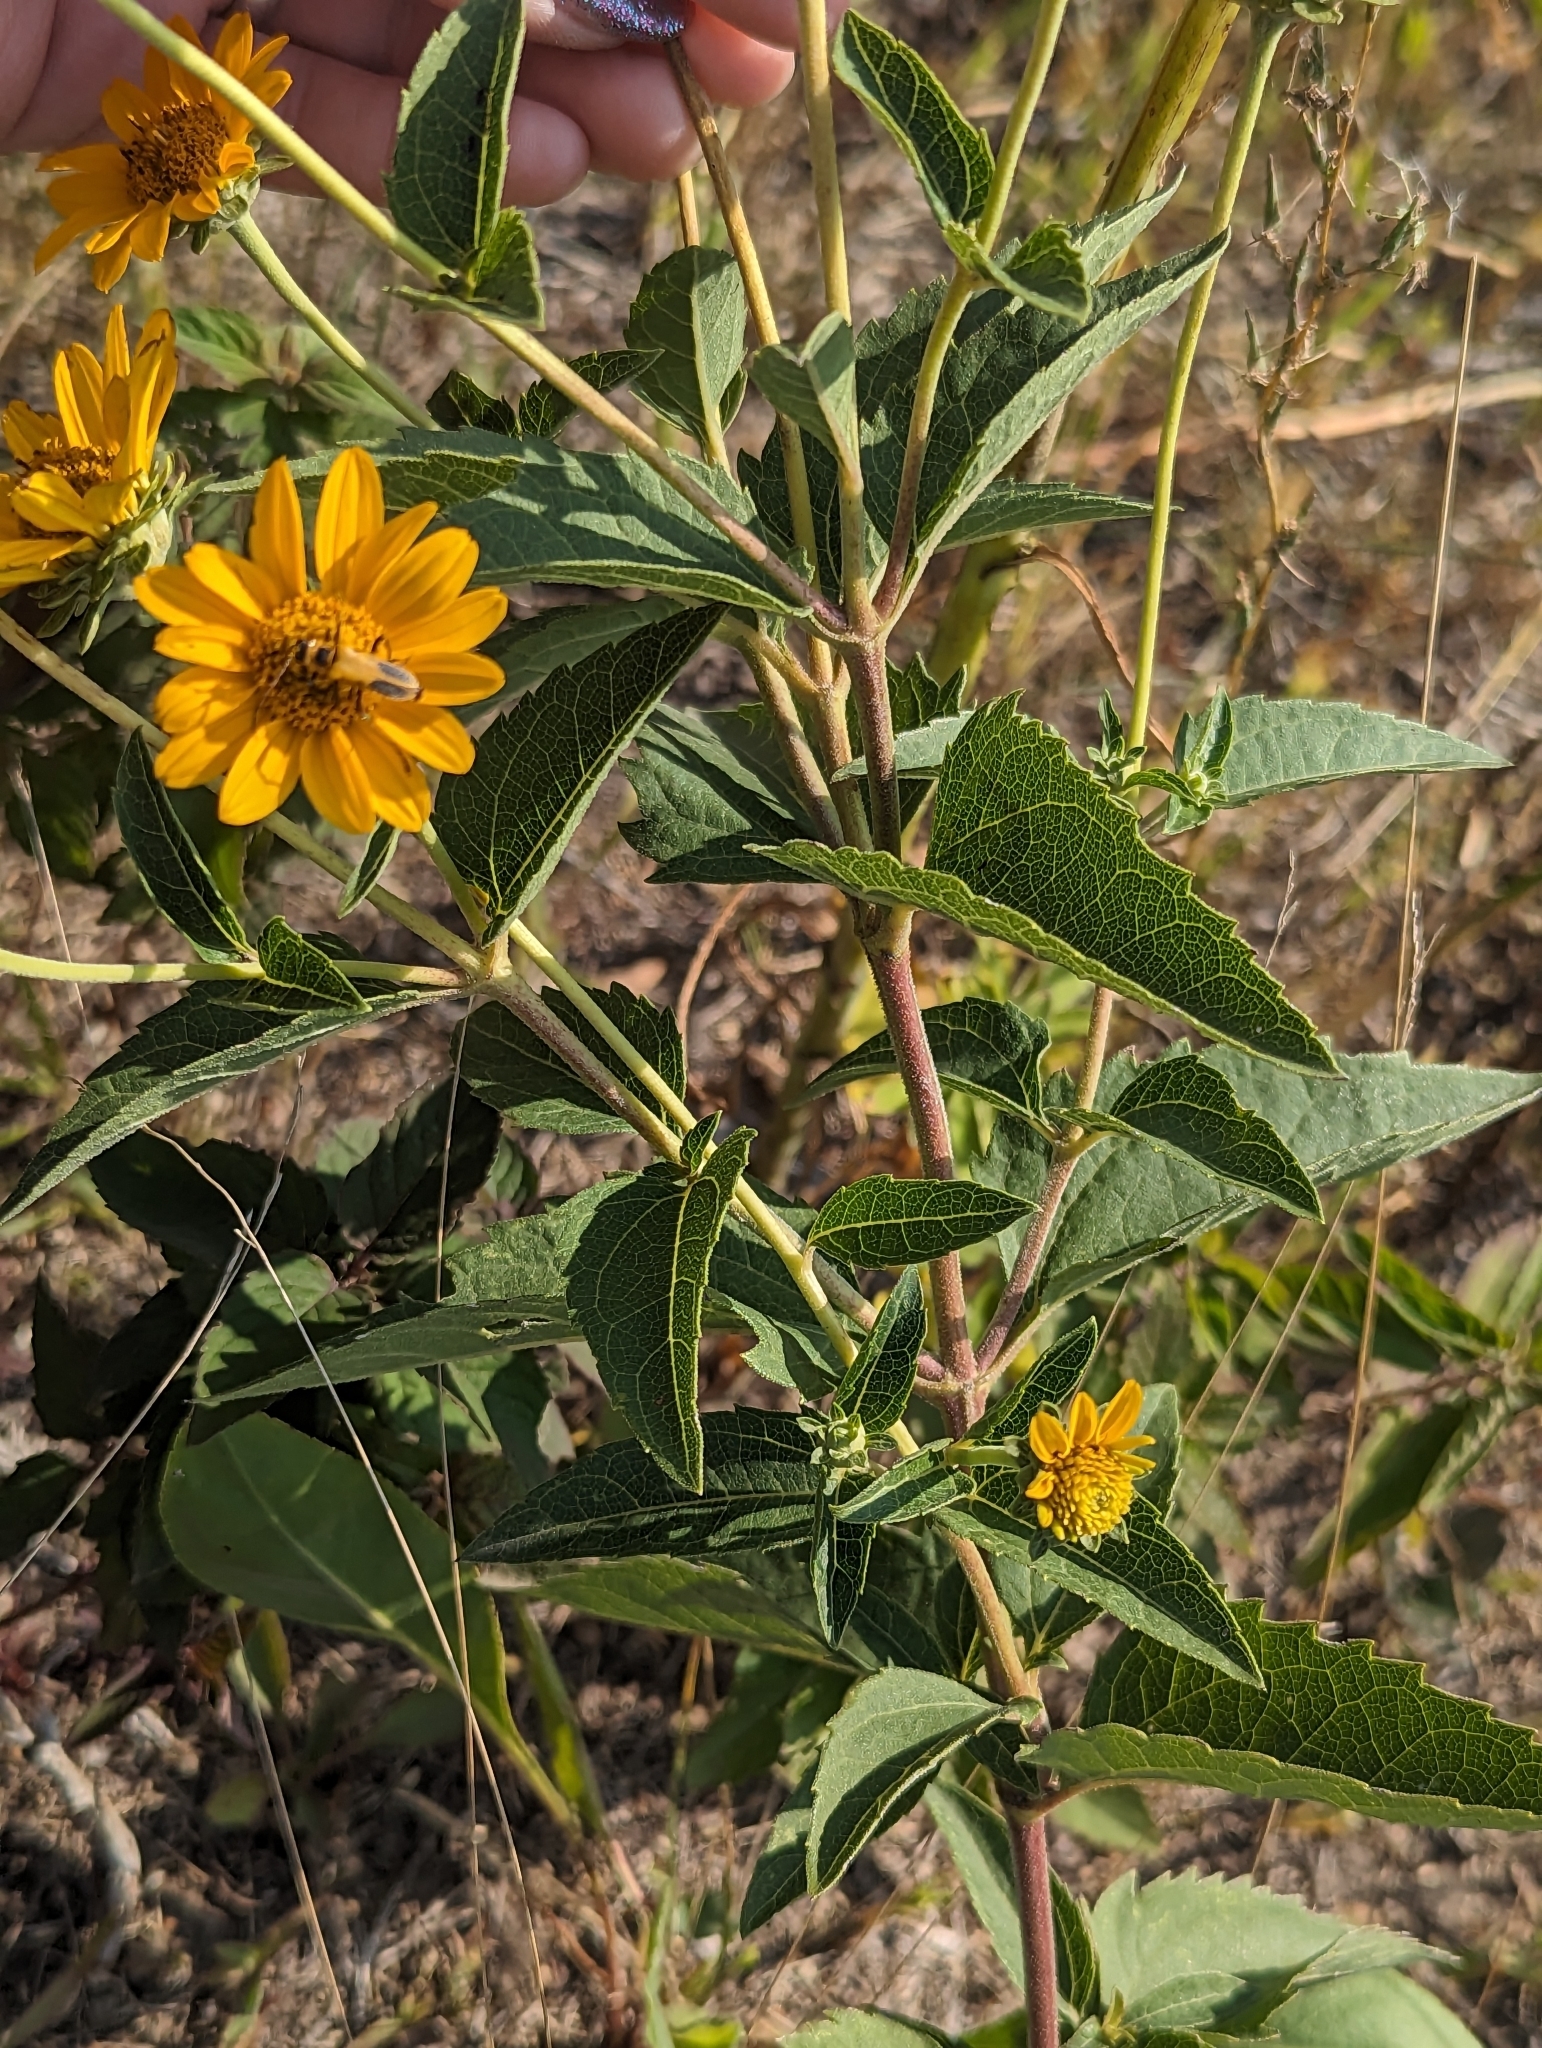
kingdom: Plantae
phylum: Tracheophyta
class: Magnoliopsida
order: Asterales
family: Asteraceae
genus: Heliopsis
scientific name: Heliopsis helianthoides
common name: False sunflower
